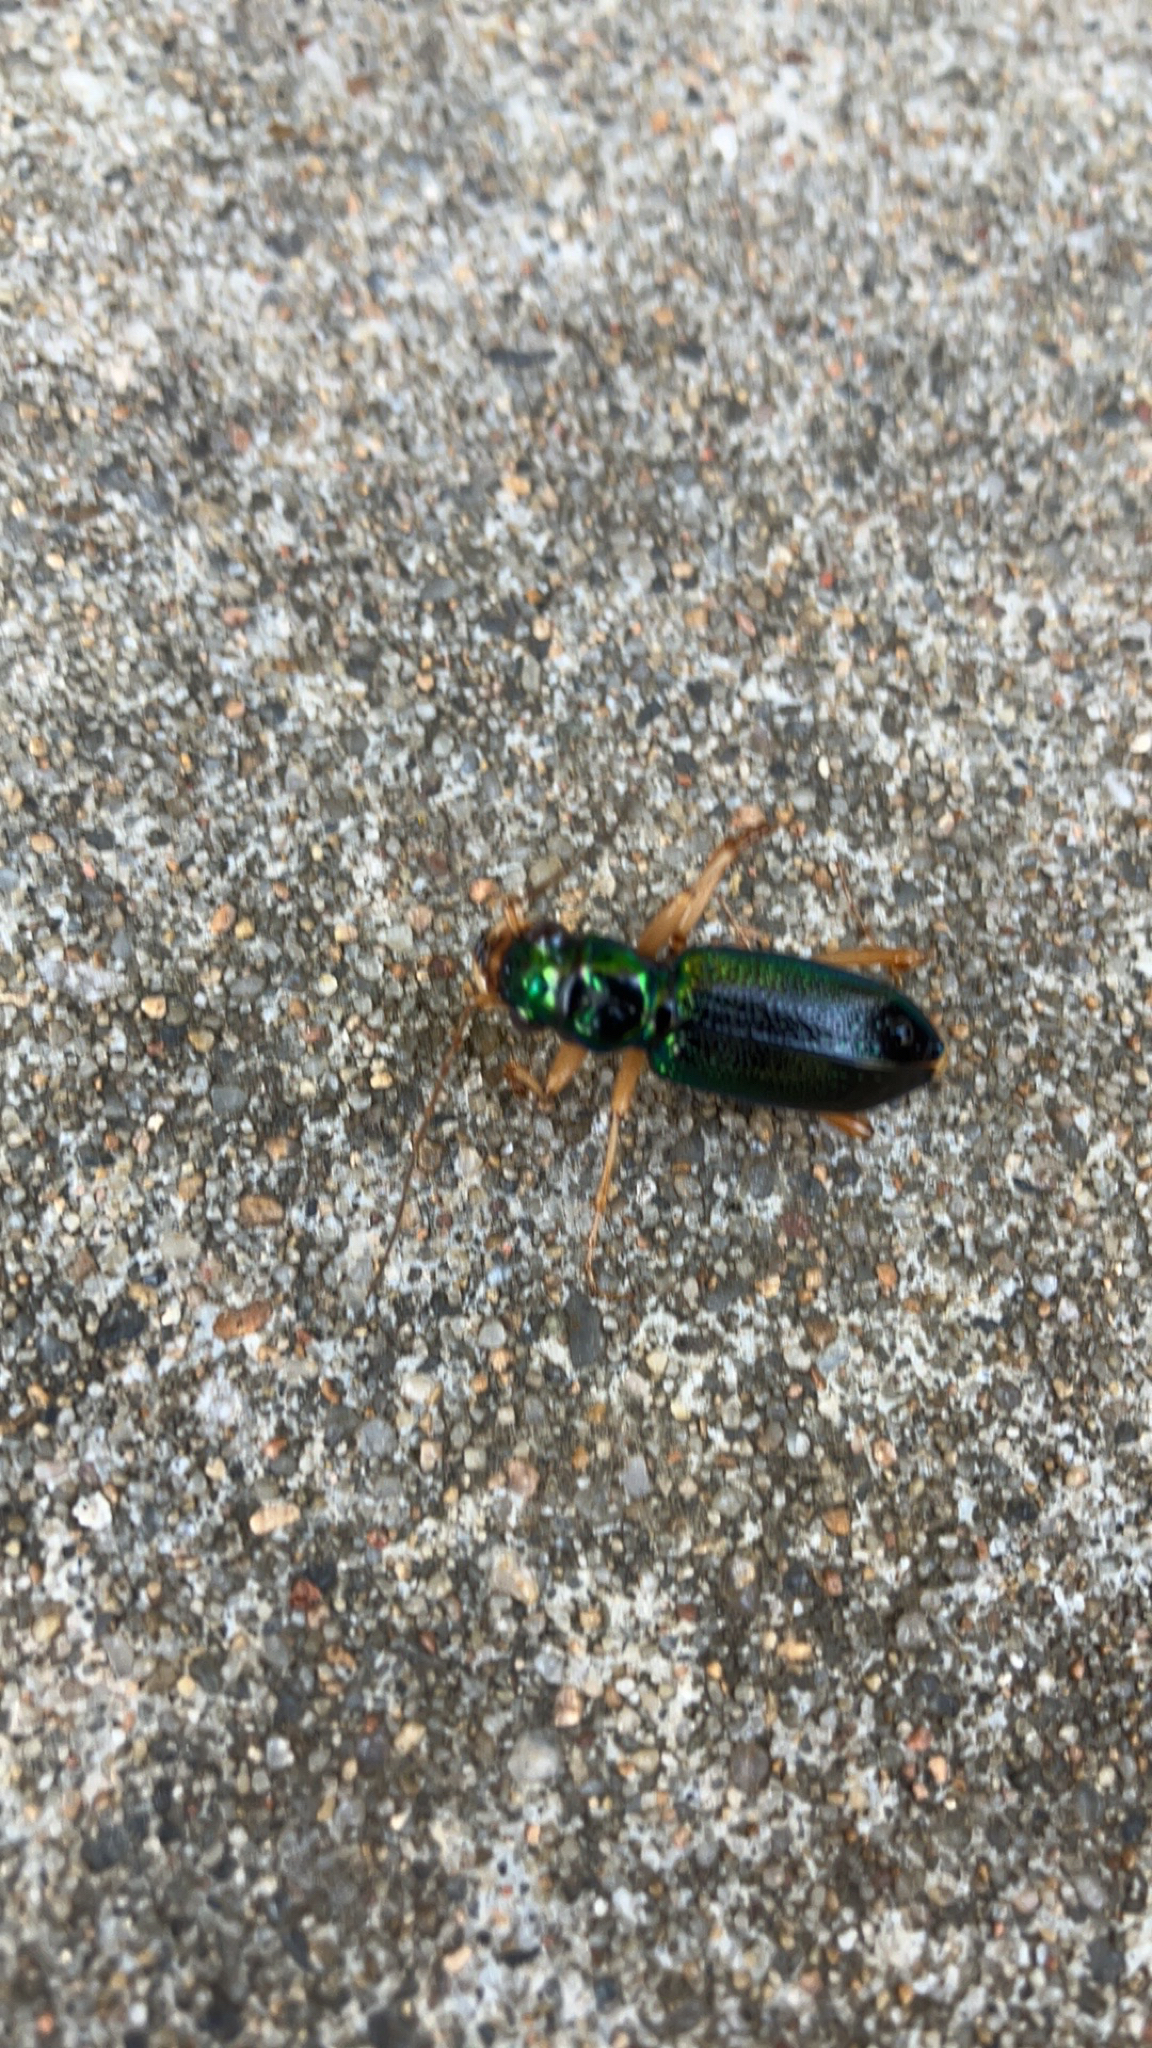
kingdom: Animalia
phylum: Arthropoda
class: Insecta
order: Coleoptera
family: Carabidae
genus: Tetracha
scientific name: Tetracha virginica
